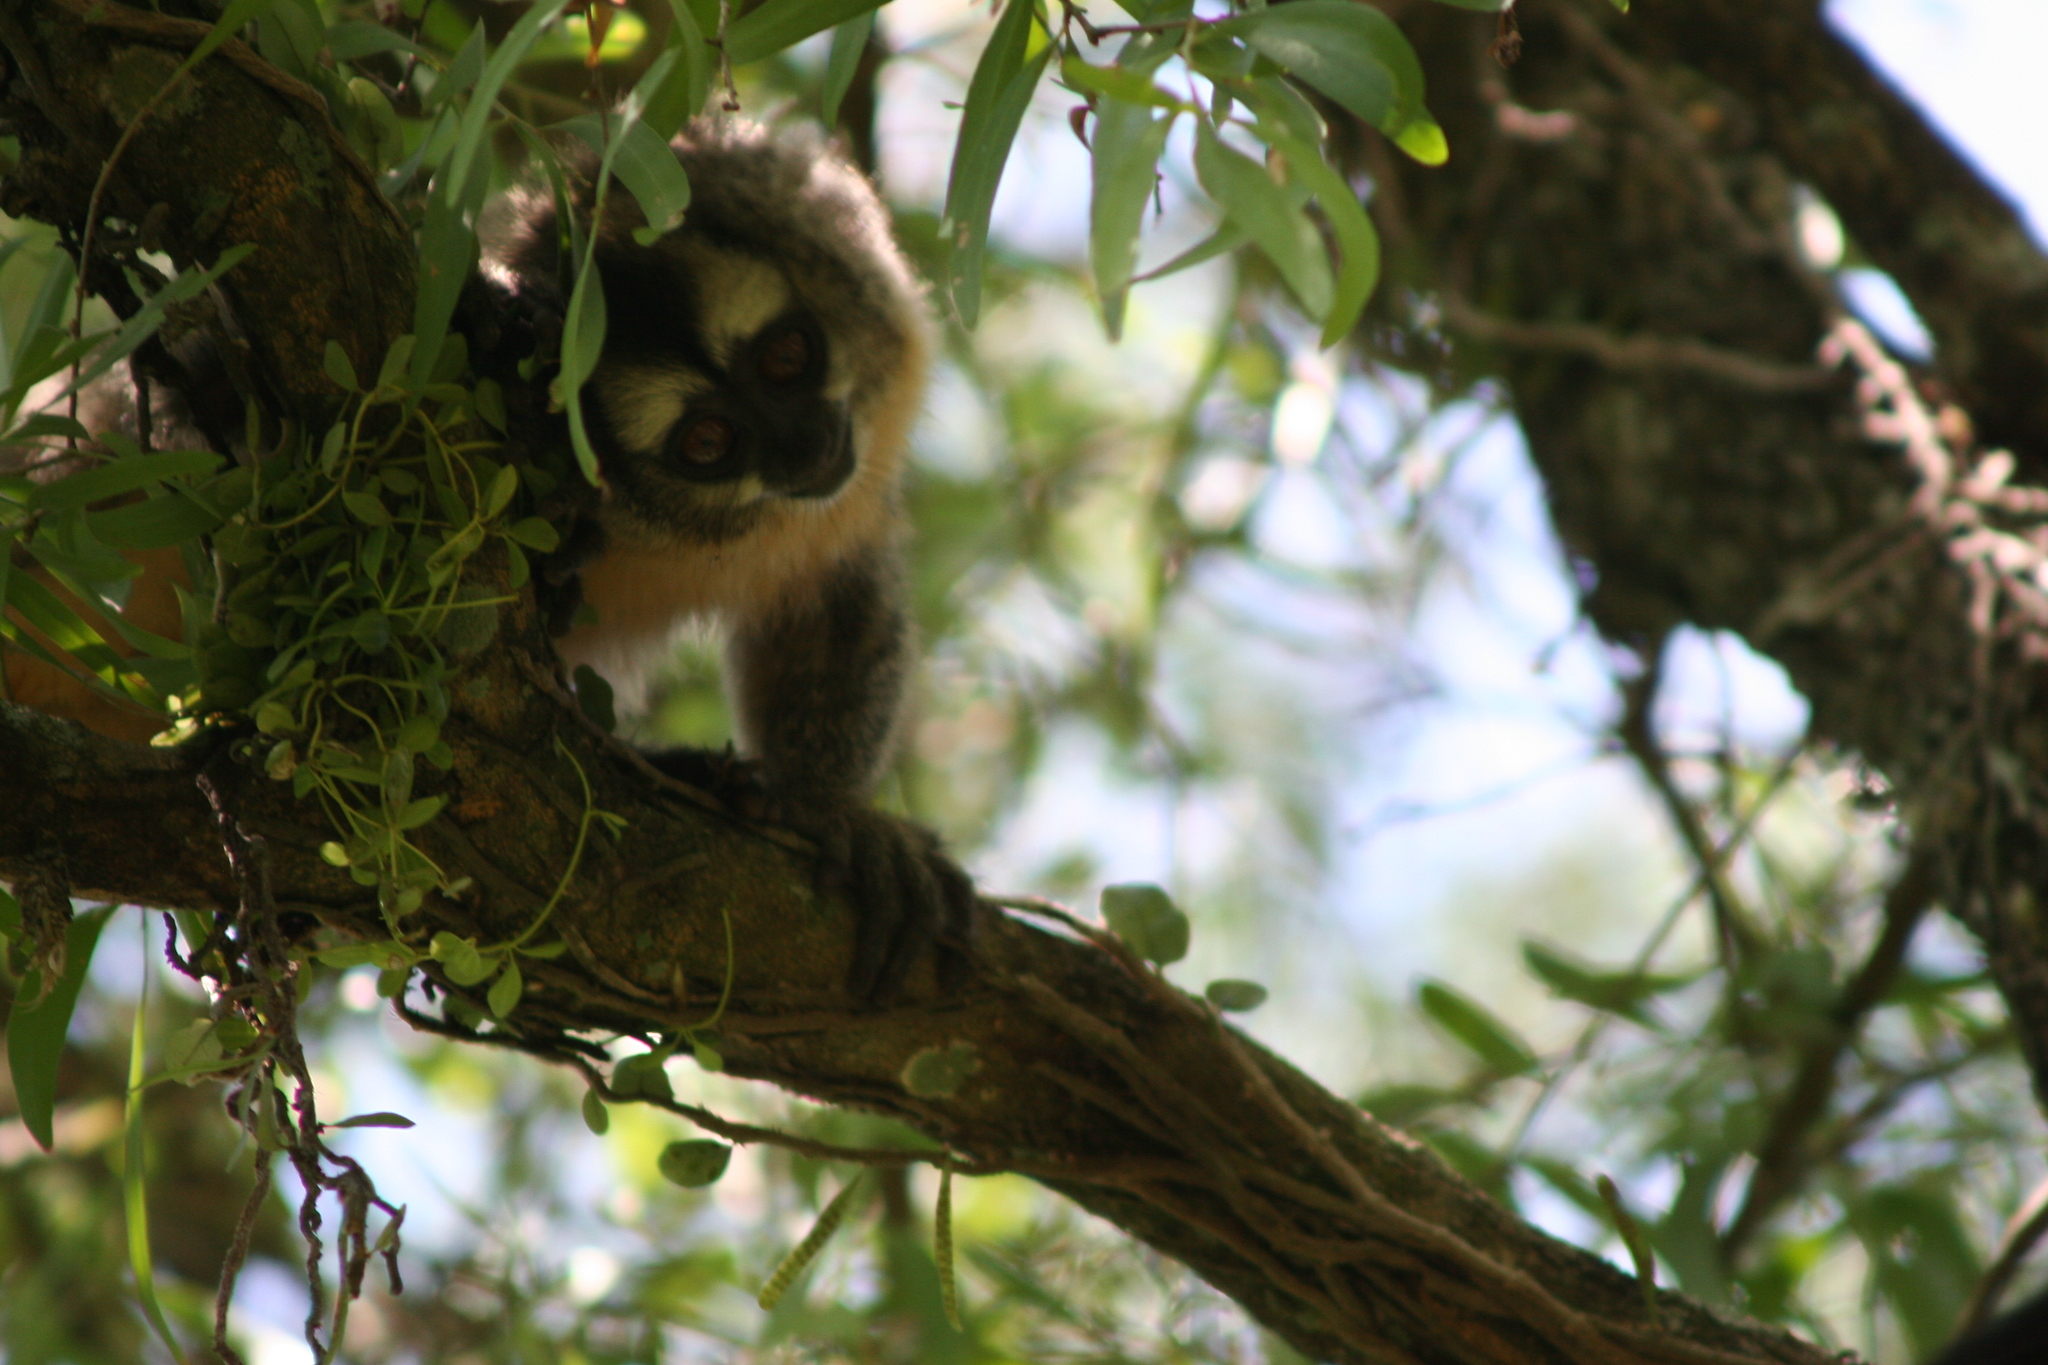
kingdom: Animalia
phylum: Chordata
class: Mammalia
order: Primates
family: Aotidae
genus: Aotus
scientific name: Aotus azarae
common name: Azara's night monkey
